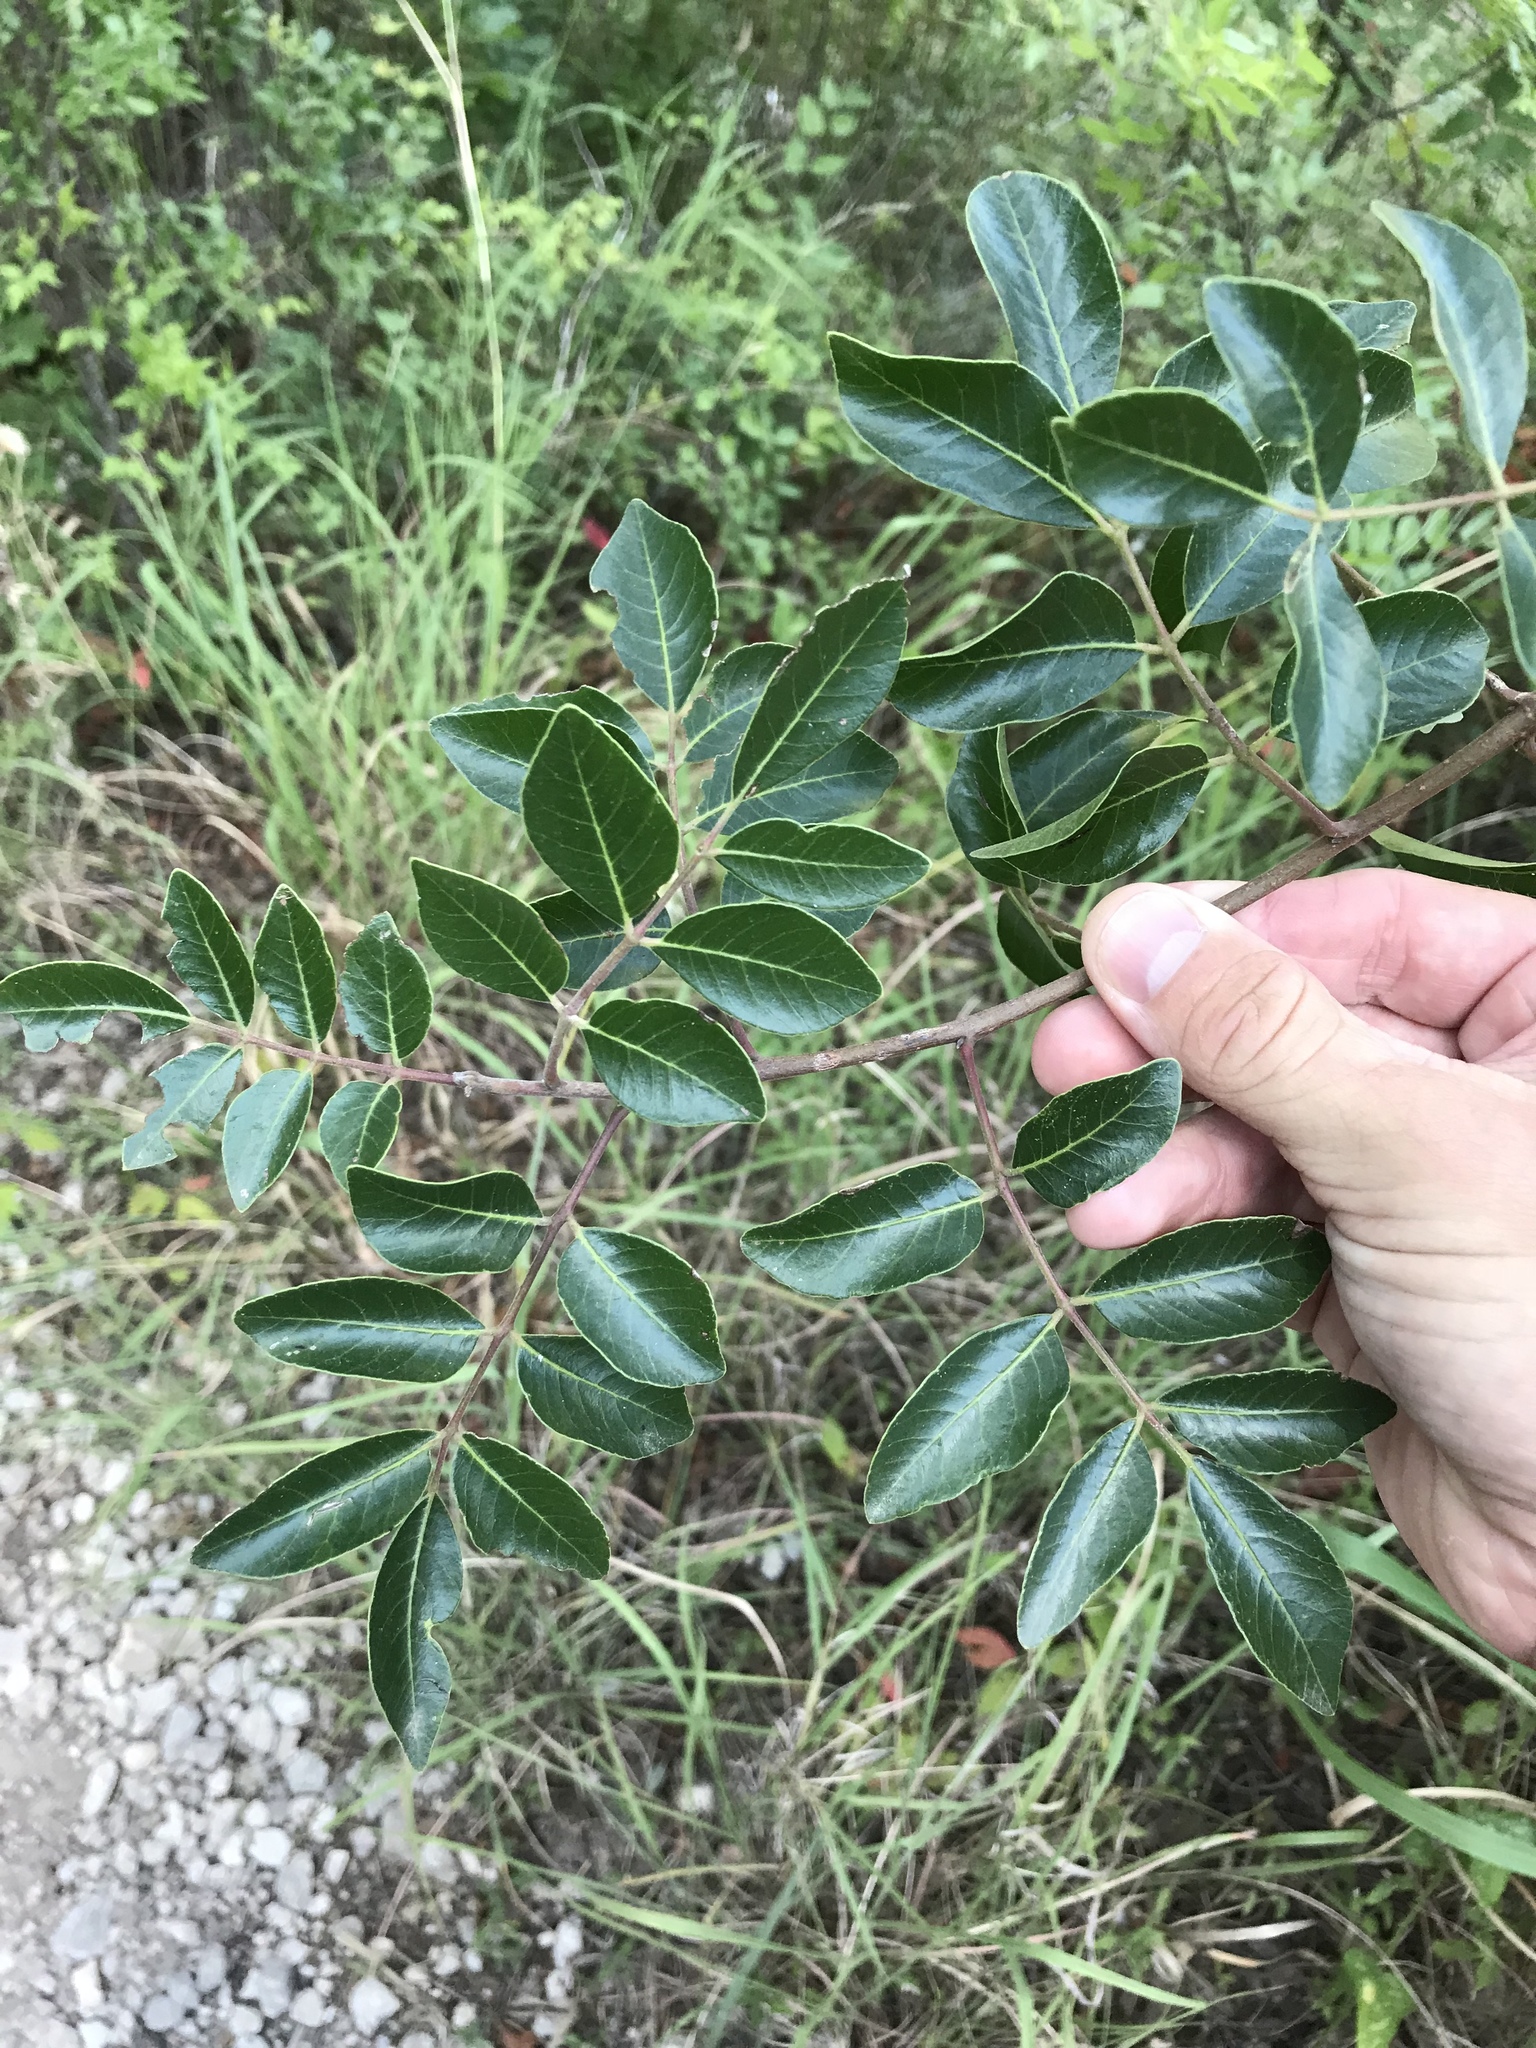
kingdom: Plantae
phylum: Tracheophyta
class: Magnoliopsida
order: Sapindales
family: Anacardiaceae
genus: Rhus
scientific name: Rhus virens
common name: Evergreen sumac
